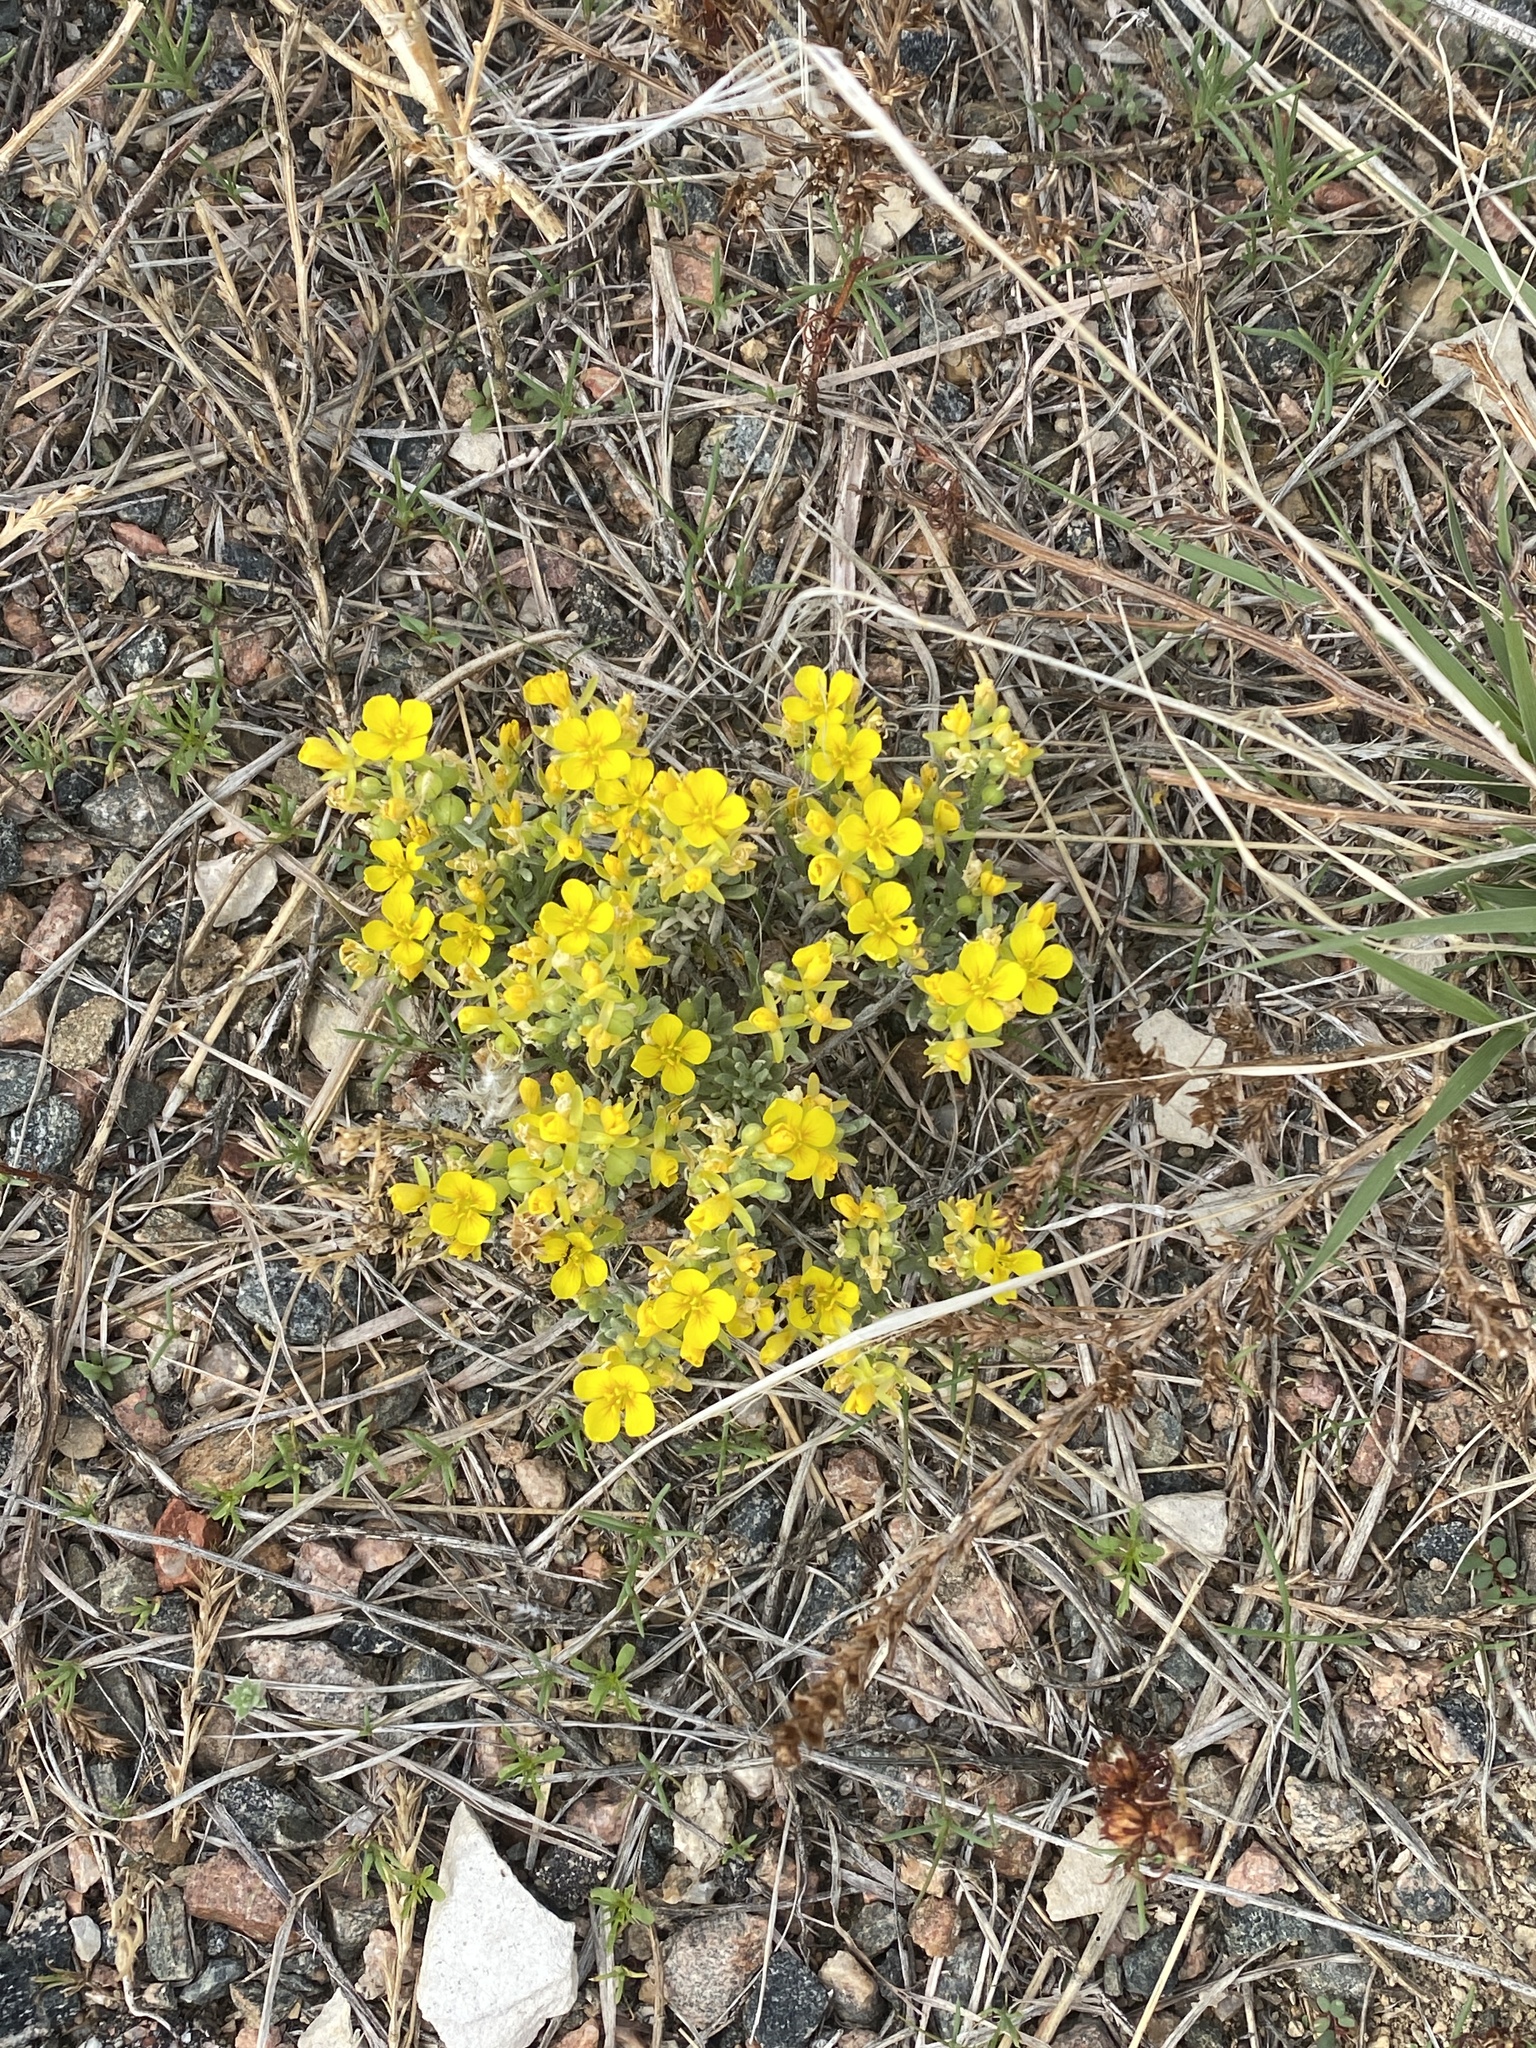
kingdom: Plantae
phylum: Tracheophyta
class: Magnoliopsida
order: Brassicales
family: Brassicaceae
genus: Physaria
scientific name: Physaria fendleri
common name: Fendler's bladderpod
